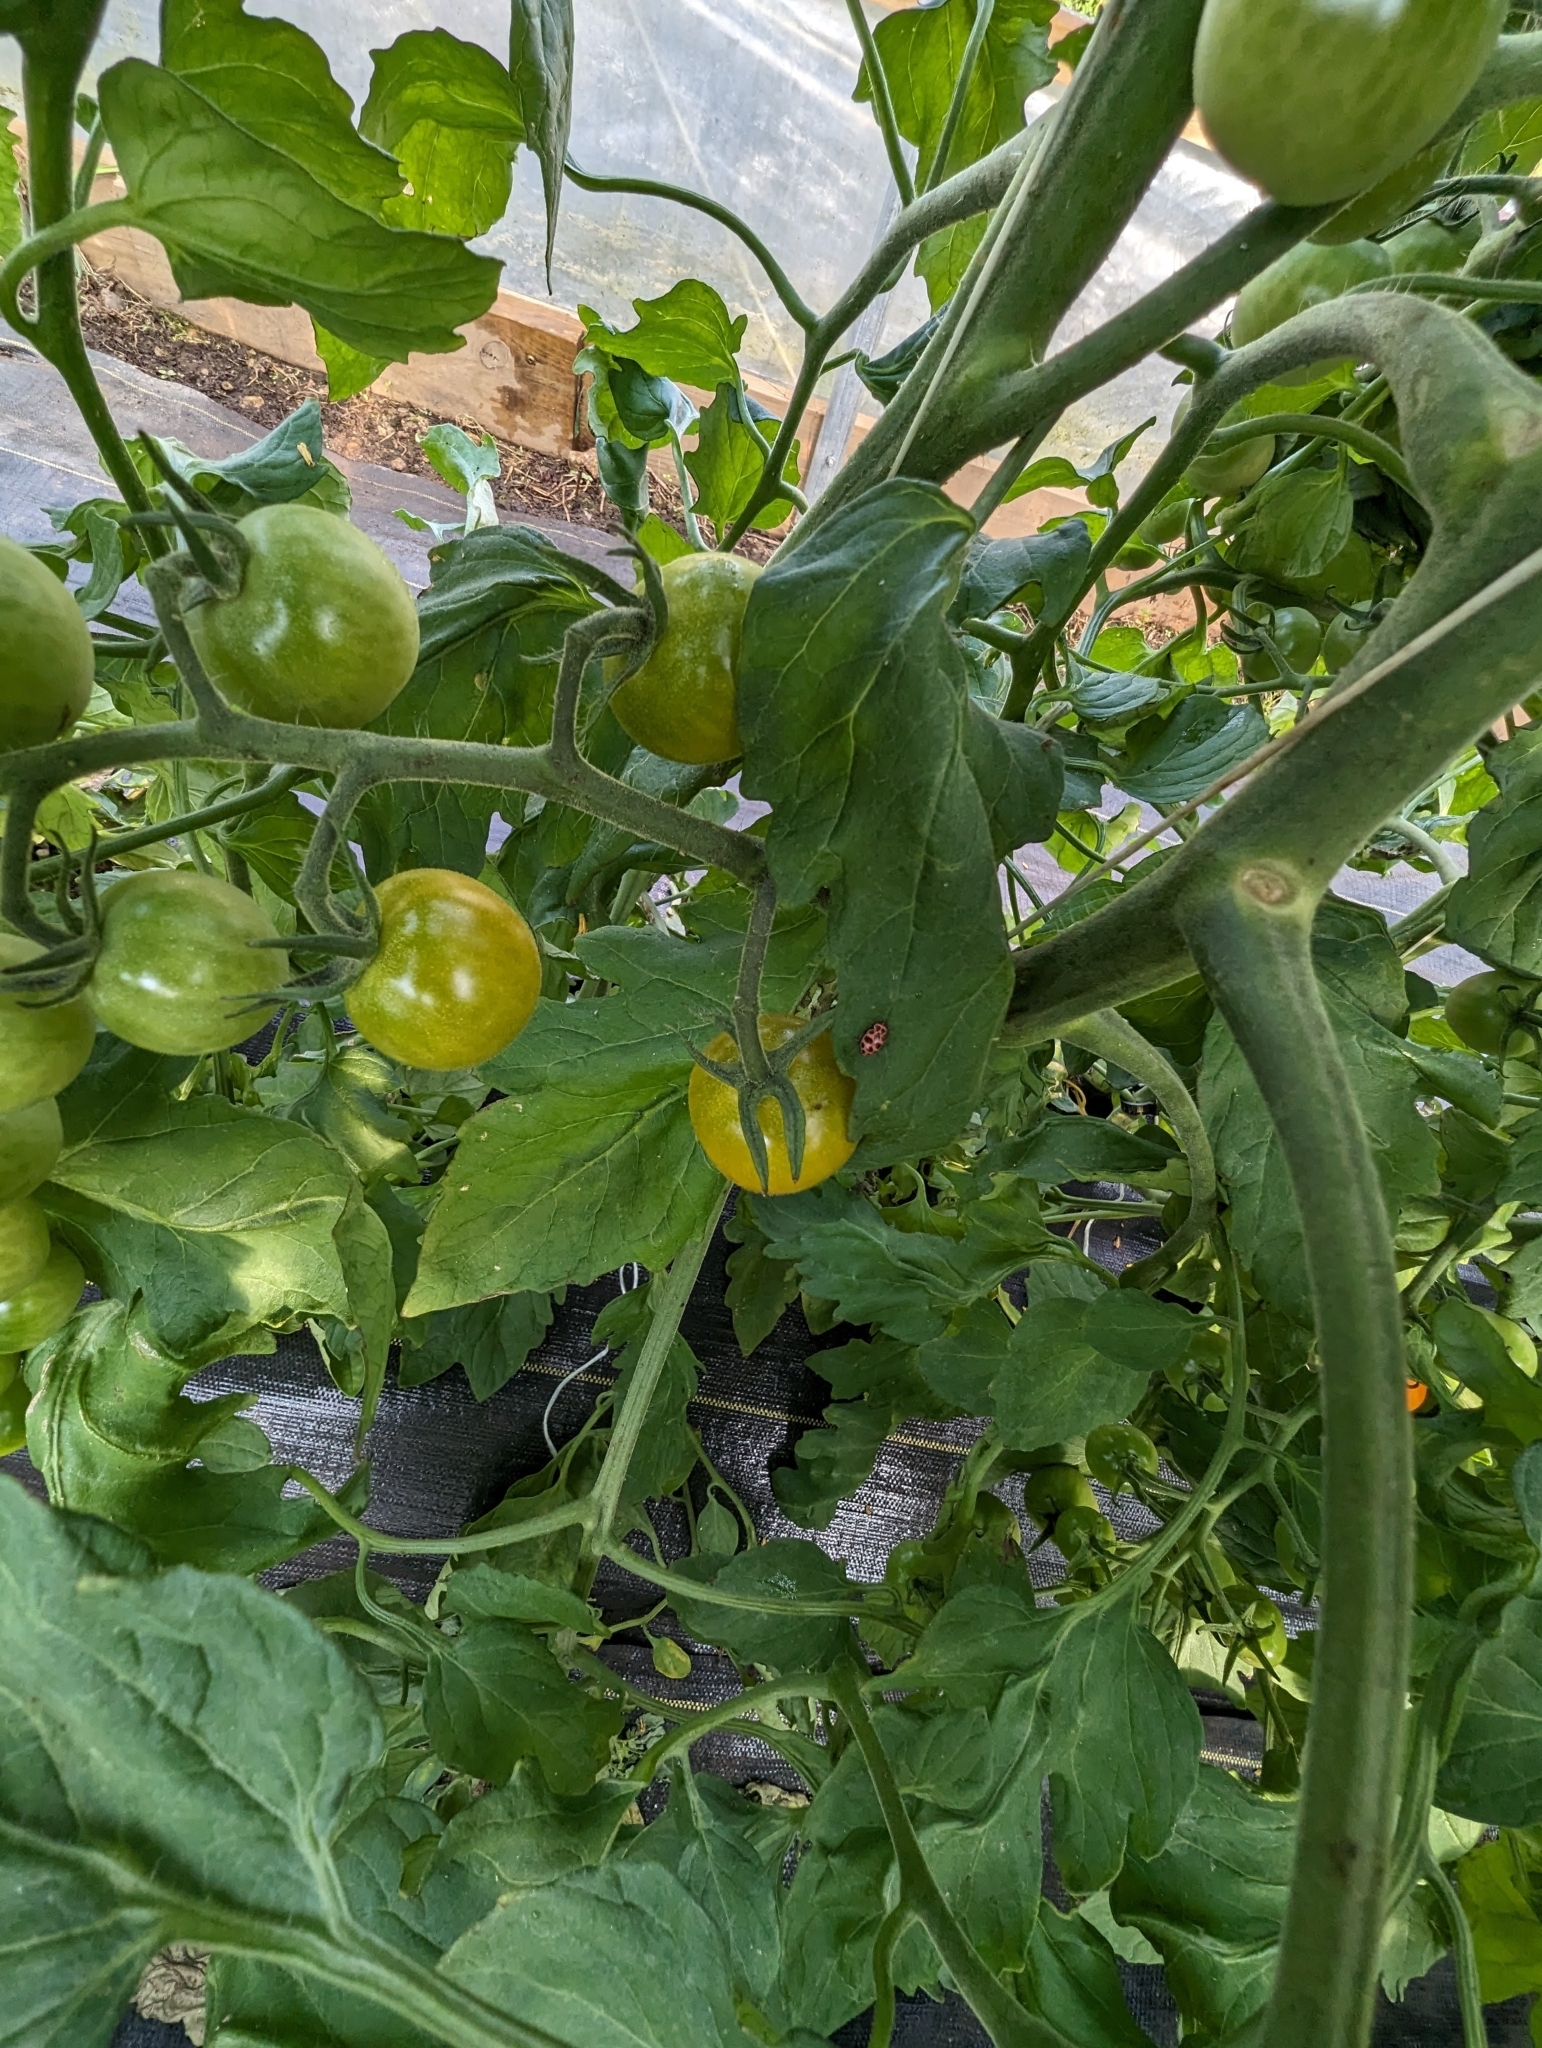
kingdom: Animalia
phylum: Arthropoda
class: Insecta
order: Coleoptera
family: Coccinellidae
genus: Coleomegilla
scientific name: Coleomegilla maculata
